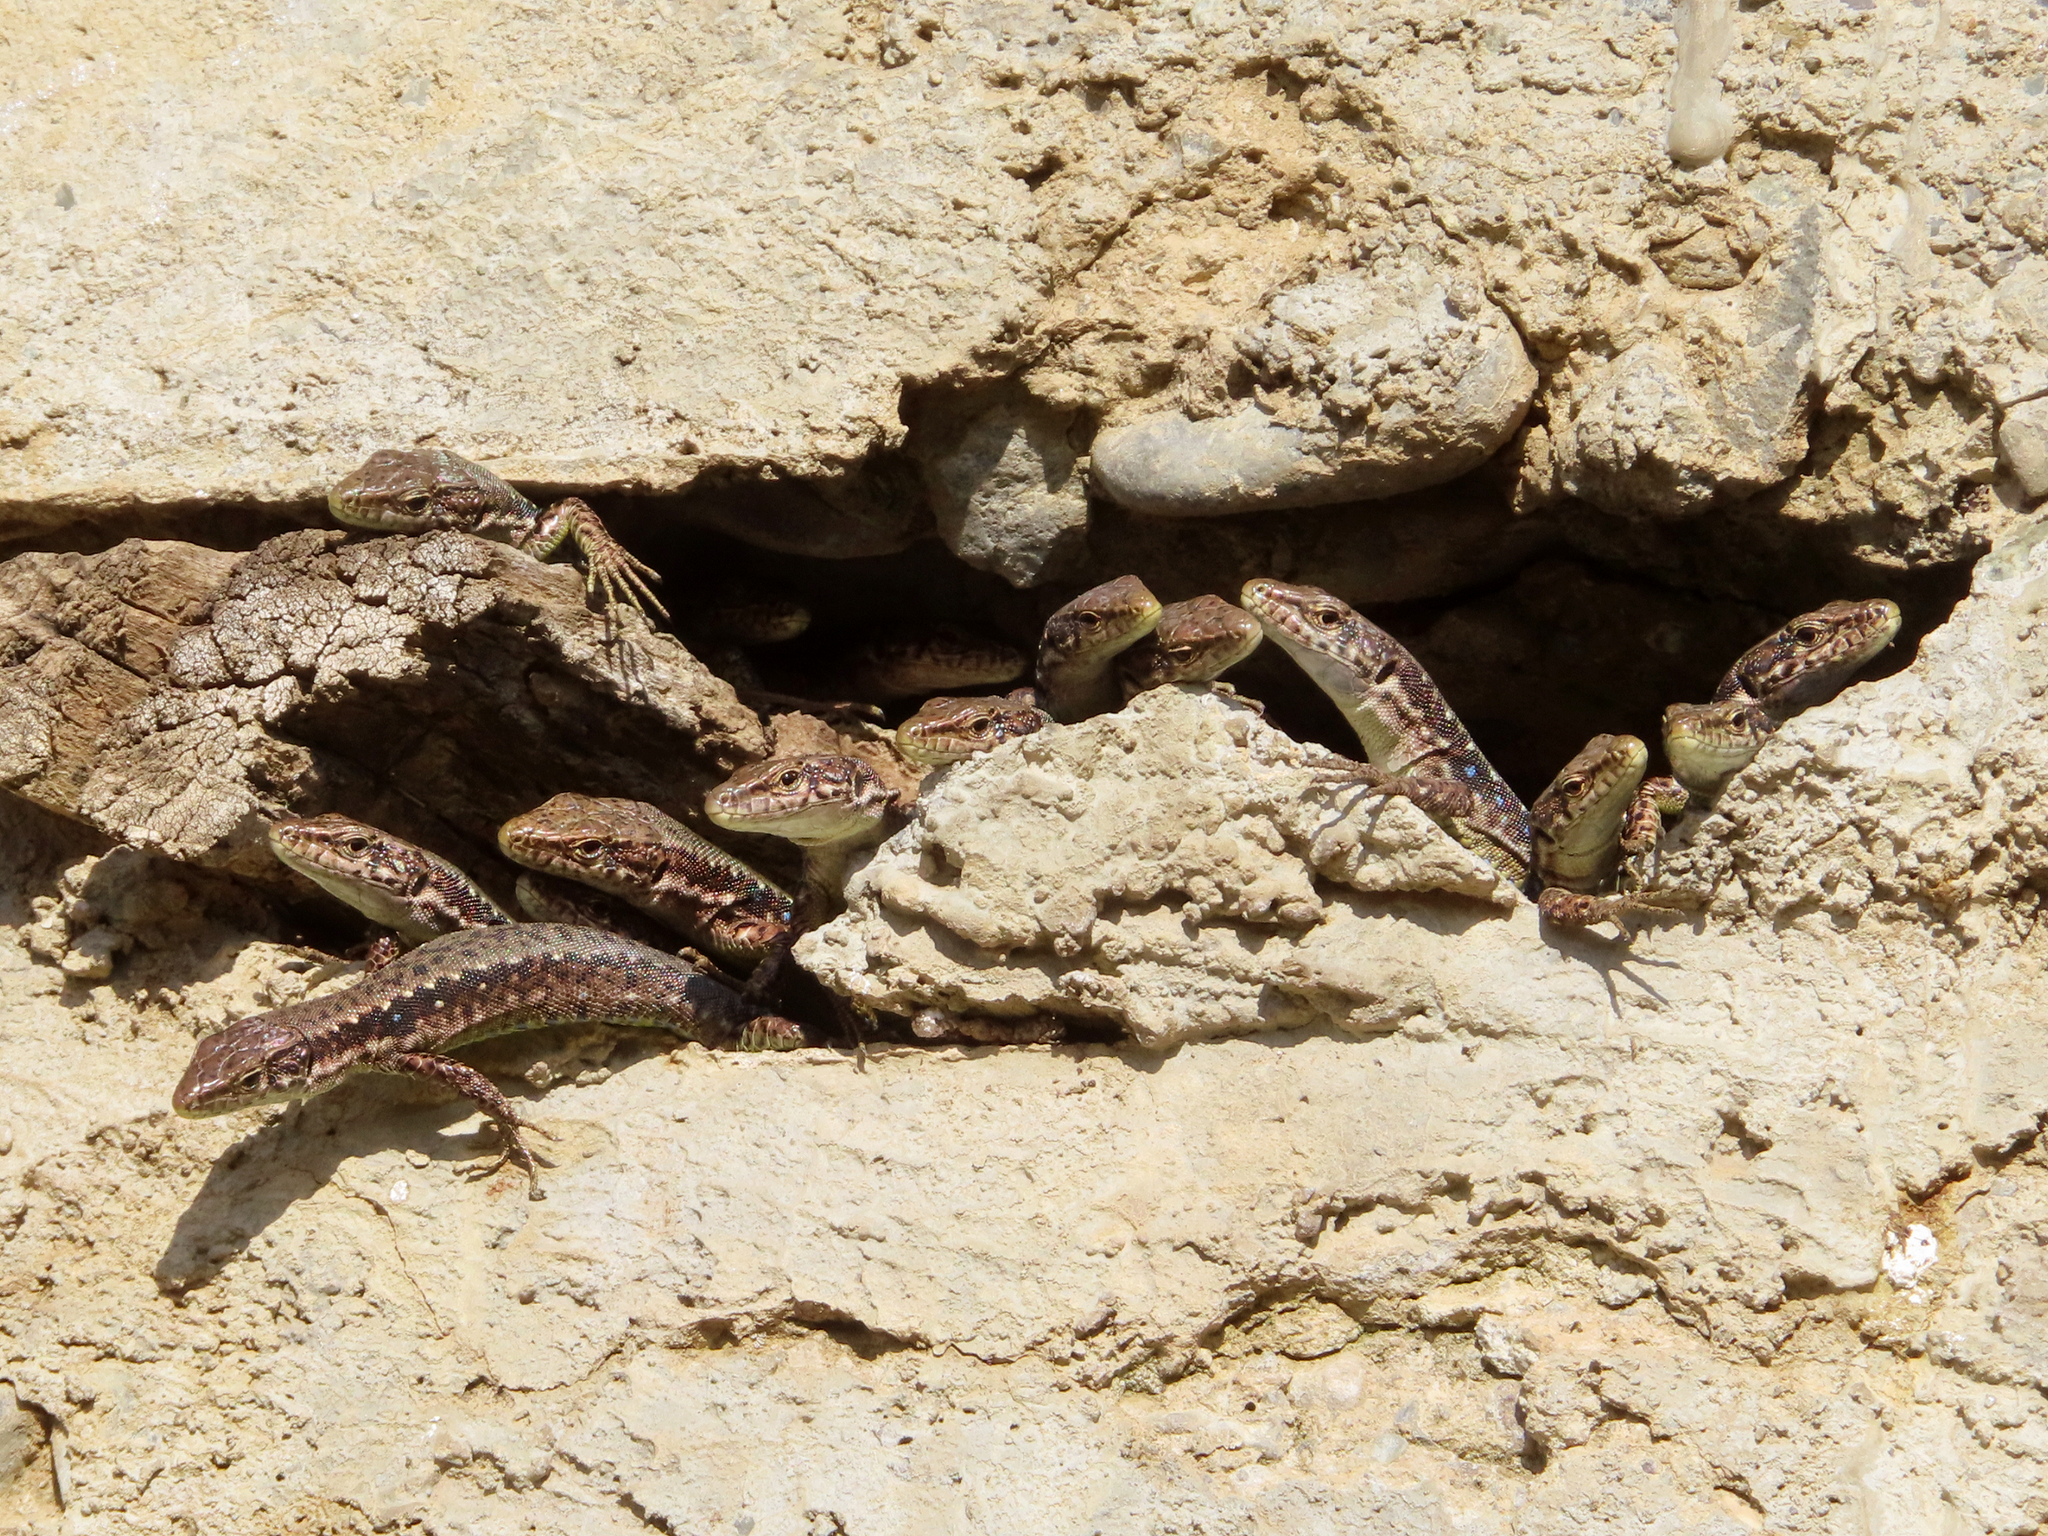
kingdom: Animalia
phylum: Chordata
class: Squamata
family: Lacertidae
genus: Darevskia
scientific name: Darevskia armeniaca
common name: Armenian lizard
